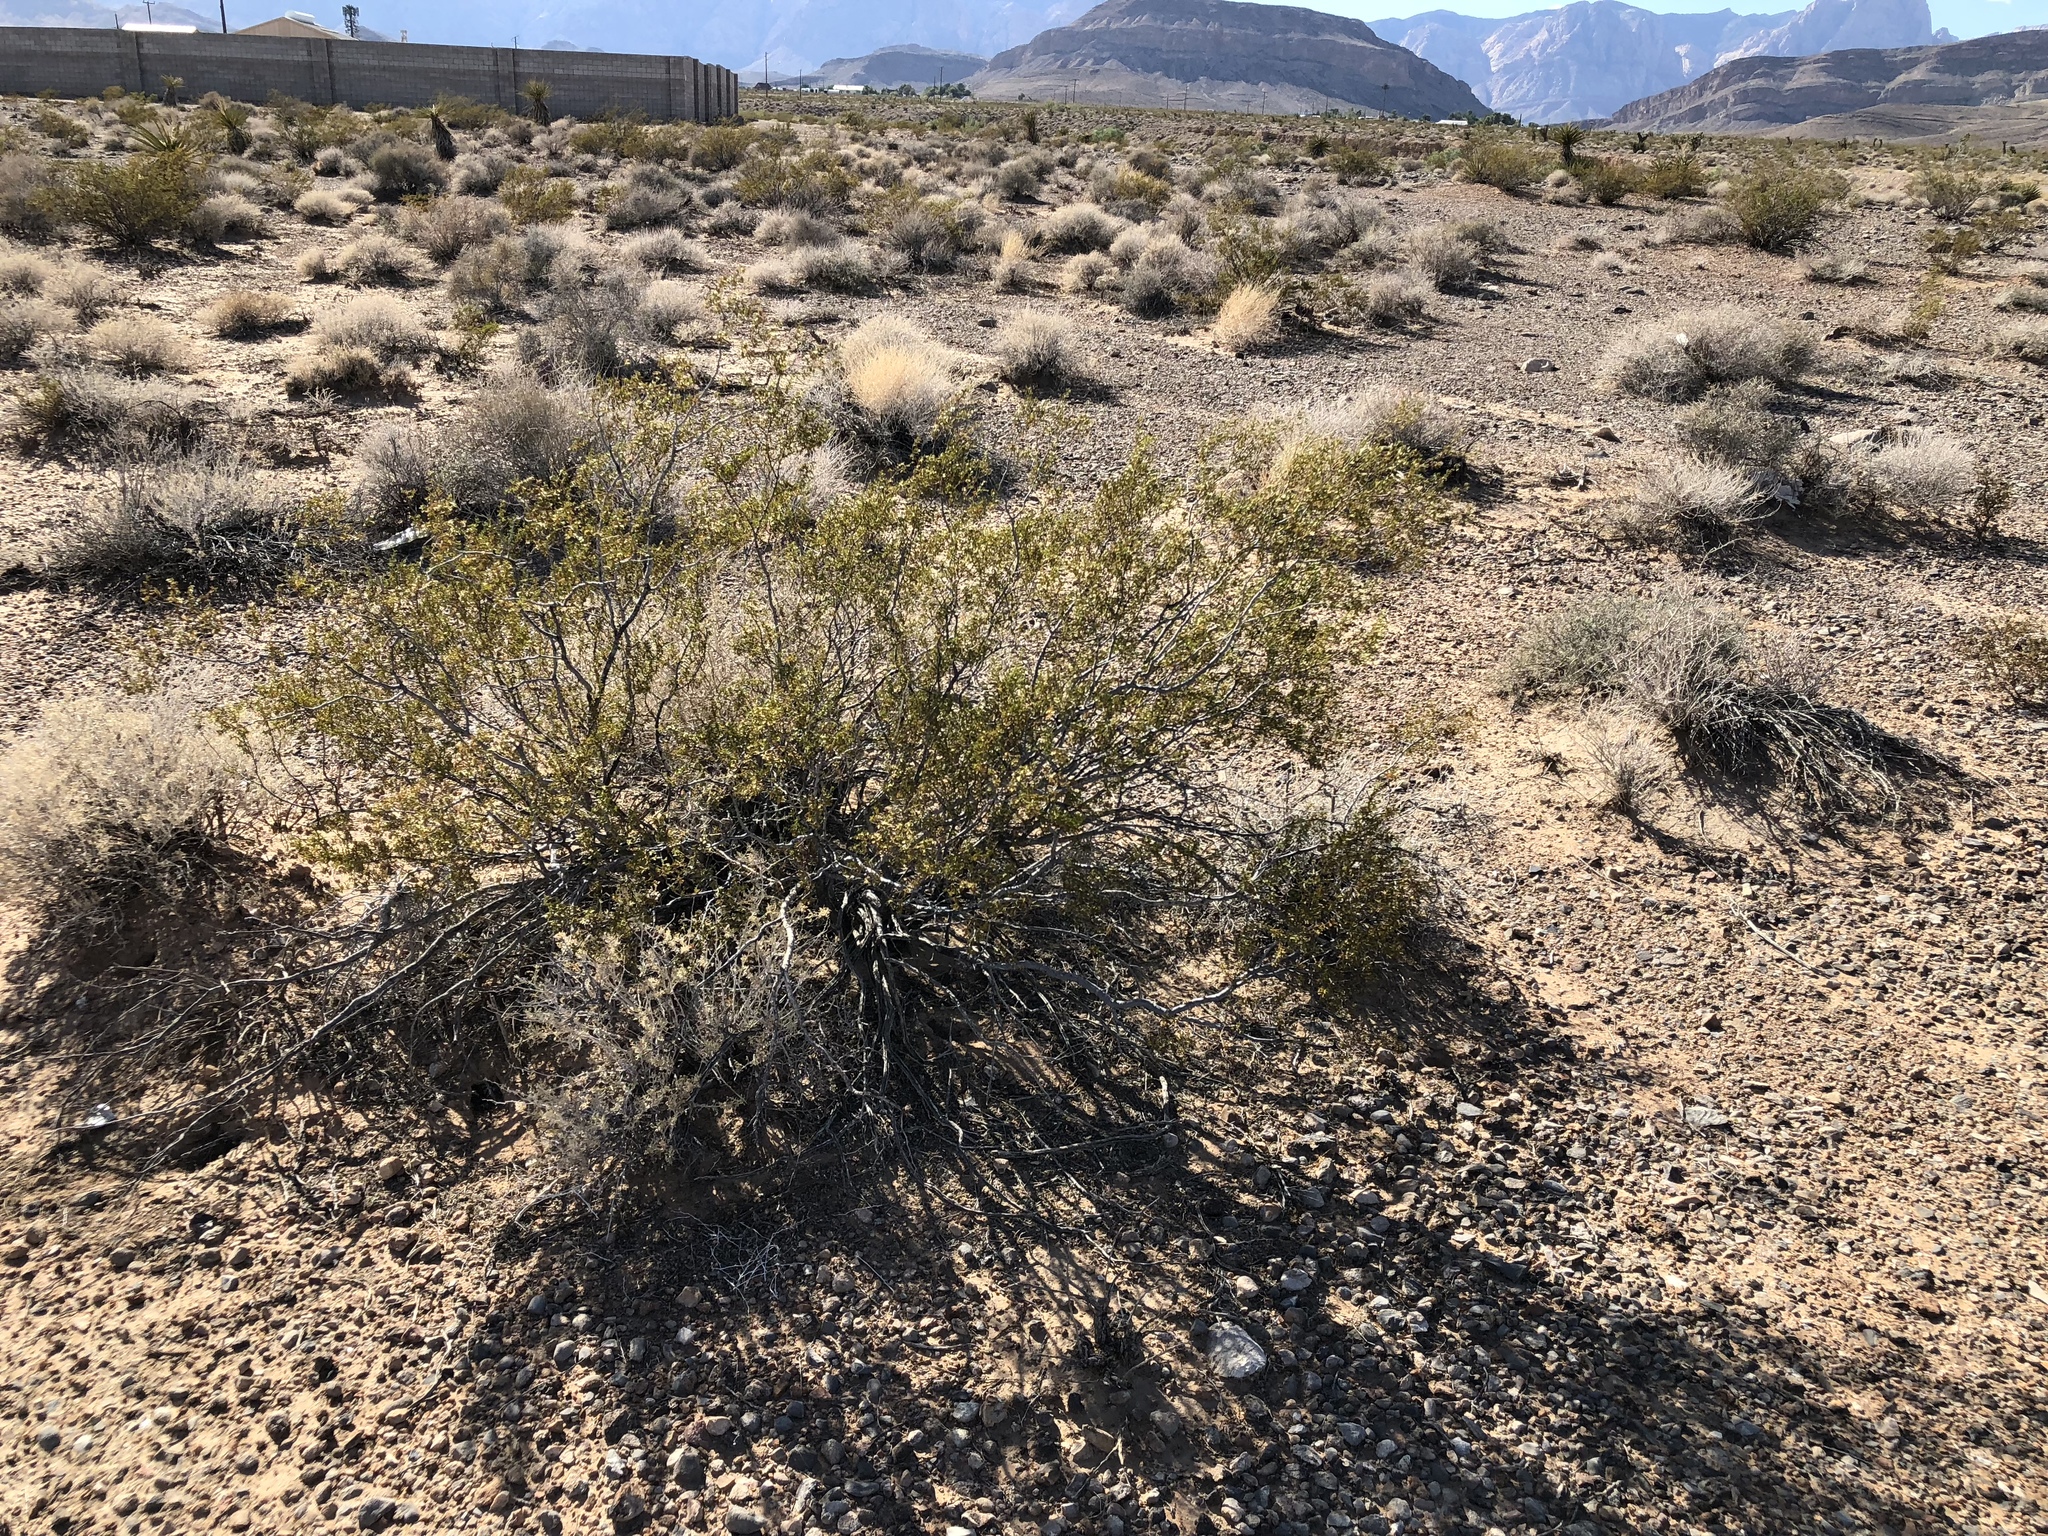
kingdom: Plantae
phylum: Tracheophyta
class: Magnoliopsida
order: Zygophyllales
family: Zygophyllaceae
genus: Larrea
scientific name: Larrea tridentata
